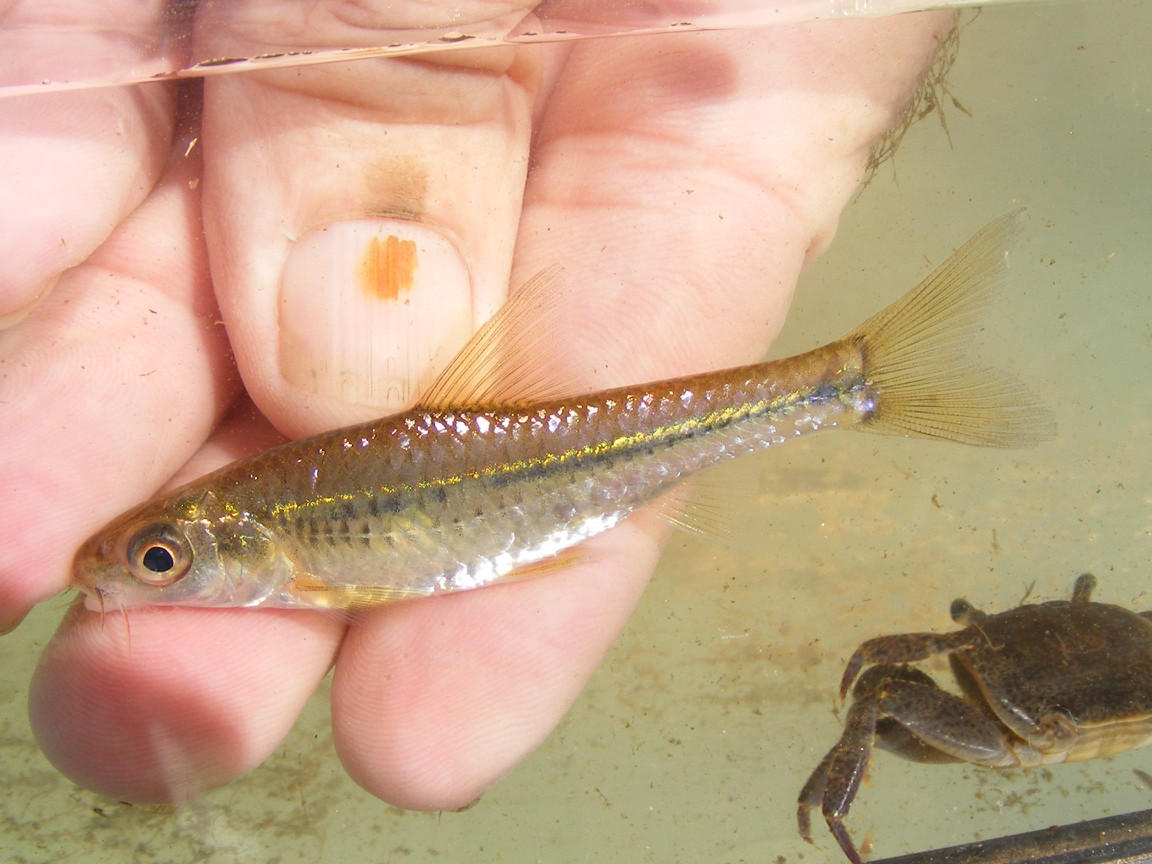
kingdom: Animalia
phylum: Chordata
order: Cypriniformes
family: Cyprinidae
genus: Enteromius
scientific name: Enteromius unitaeniatus
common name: Longbeard barb
